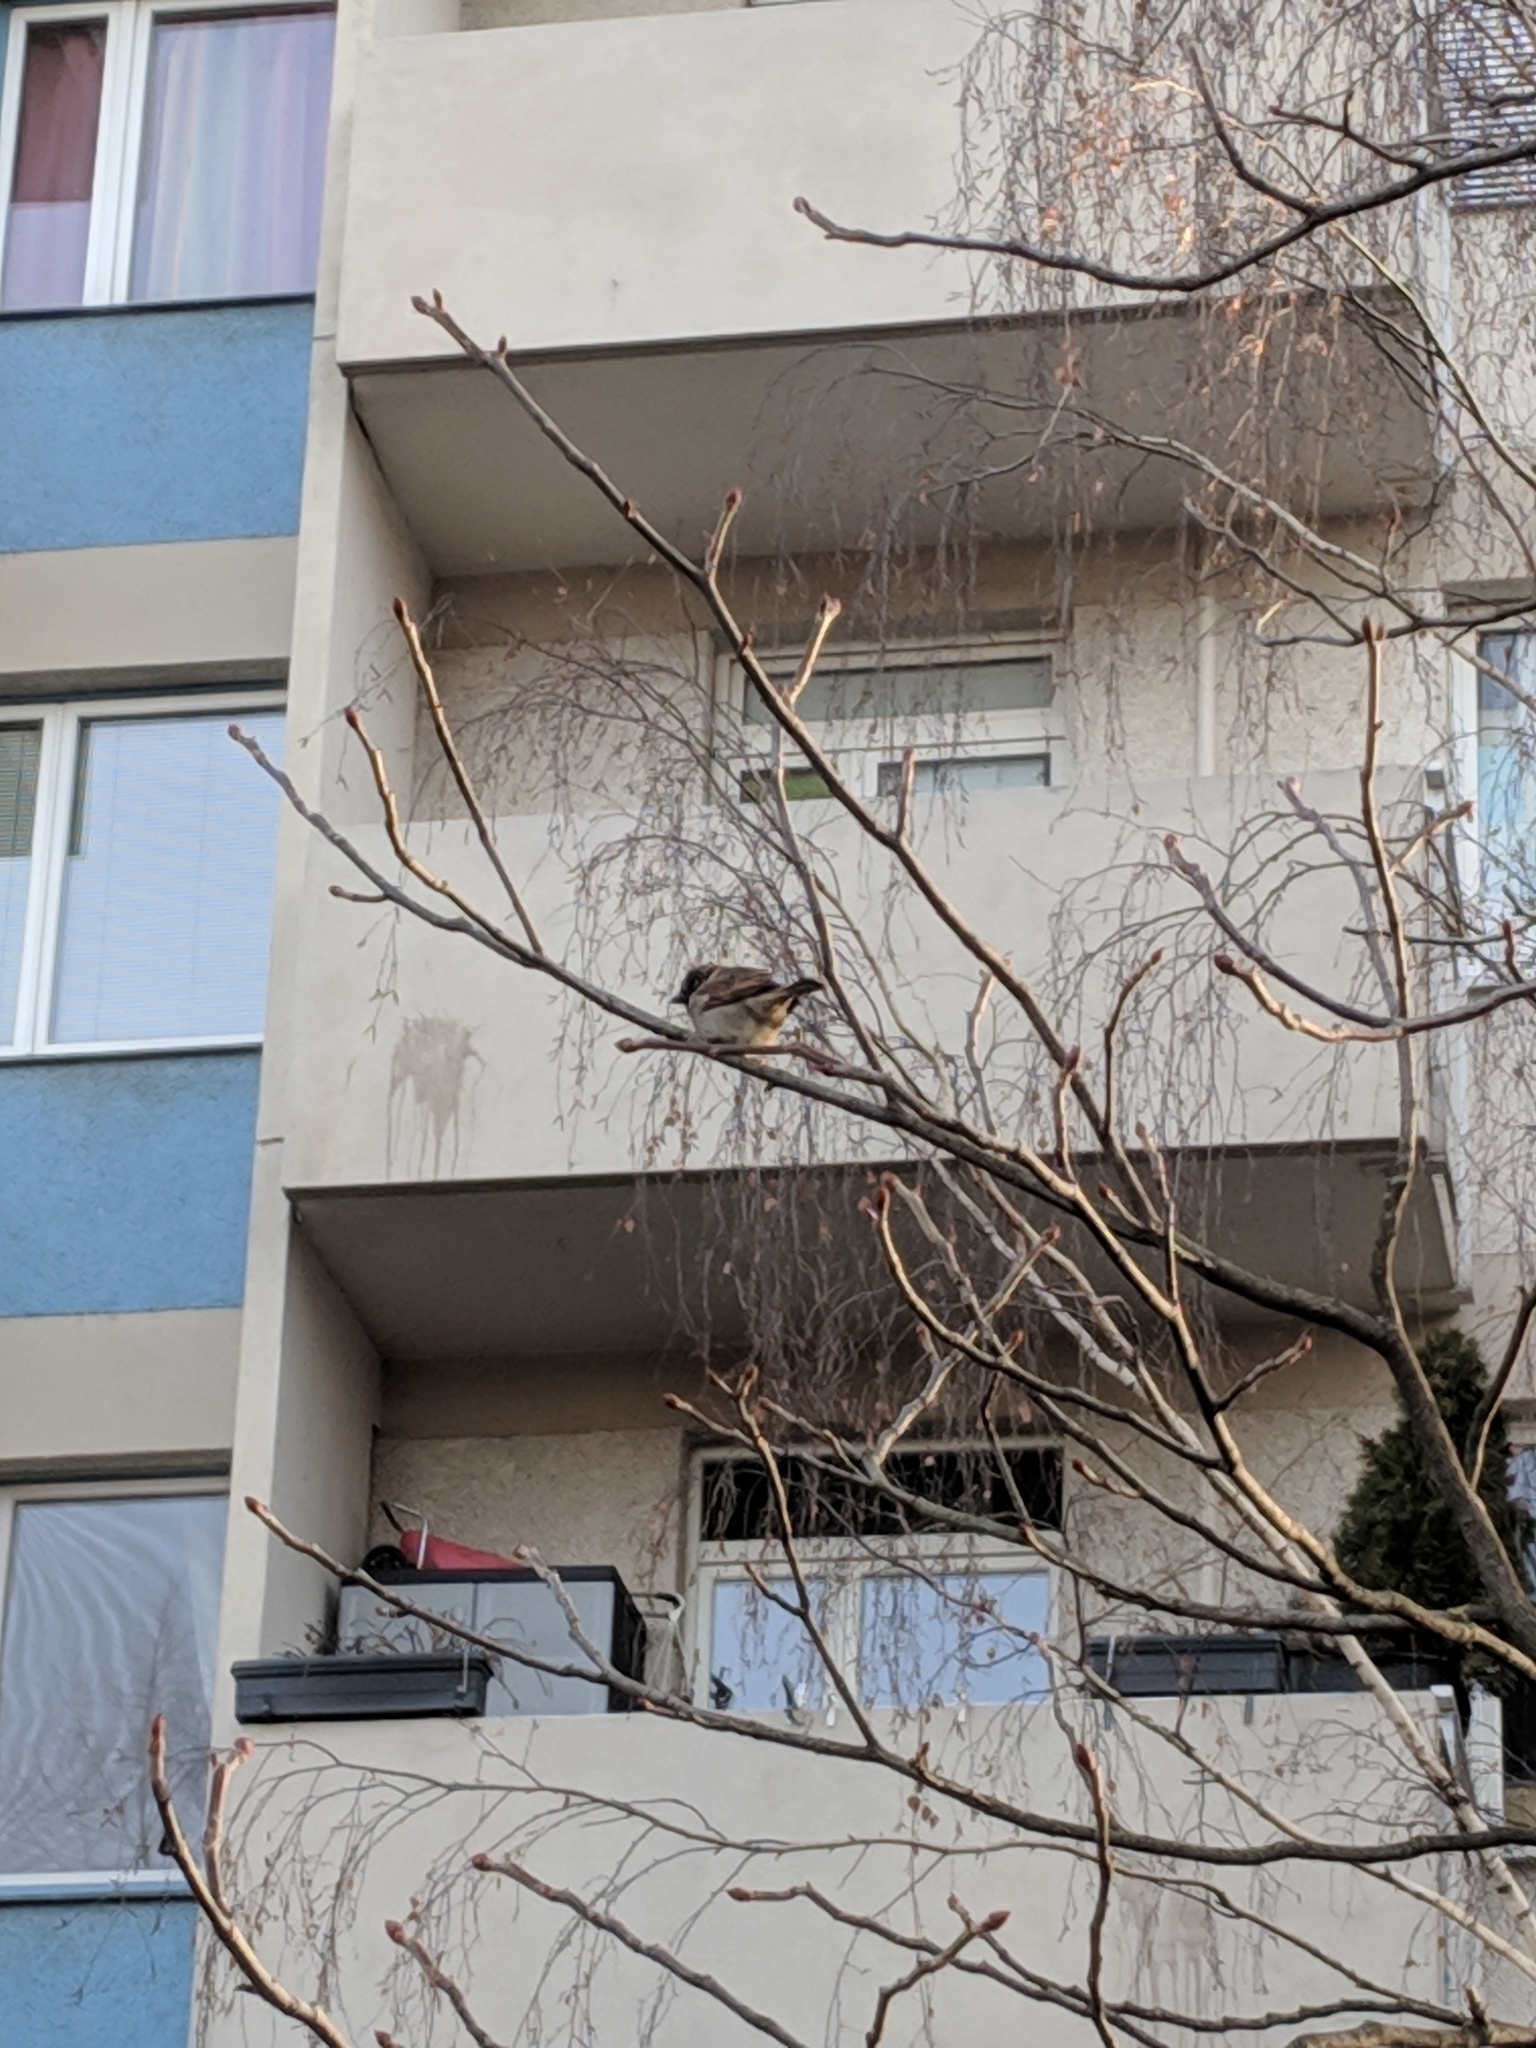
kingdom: Animalia
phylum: Chordata
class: Aves
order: Passeriformes
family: Passeridae
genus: Passer
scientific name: Passer domesticus
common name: House sparrow
